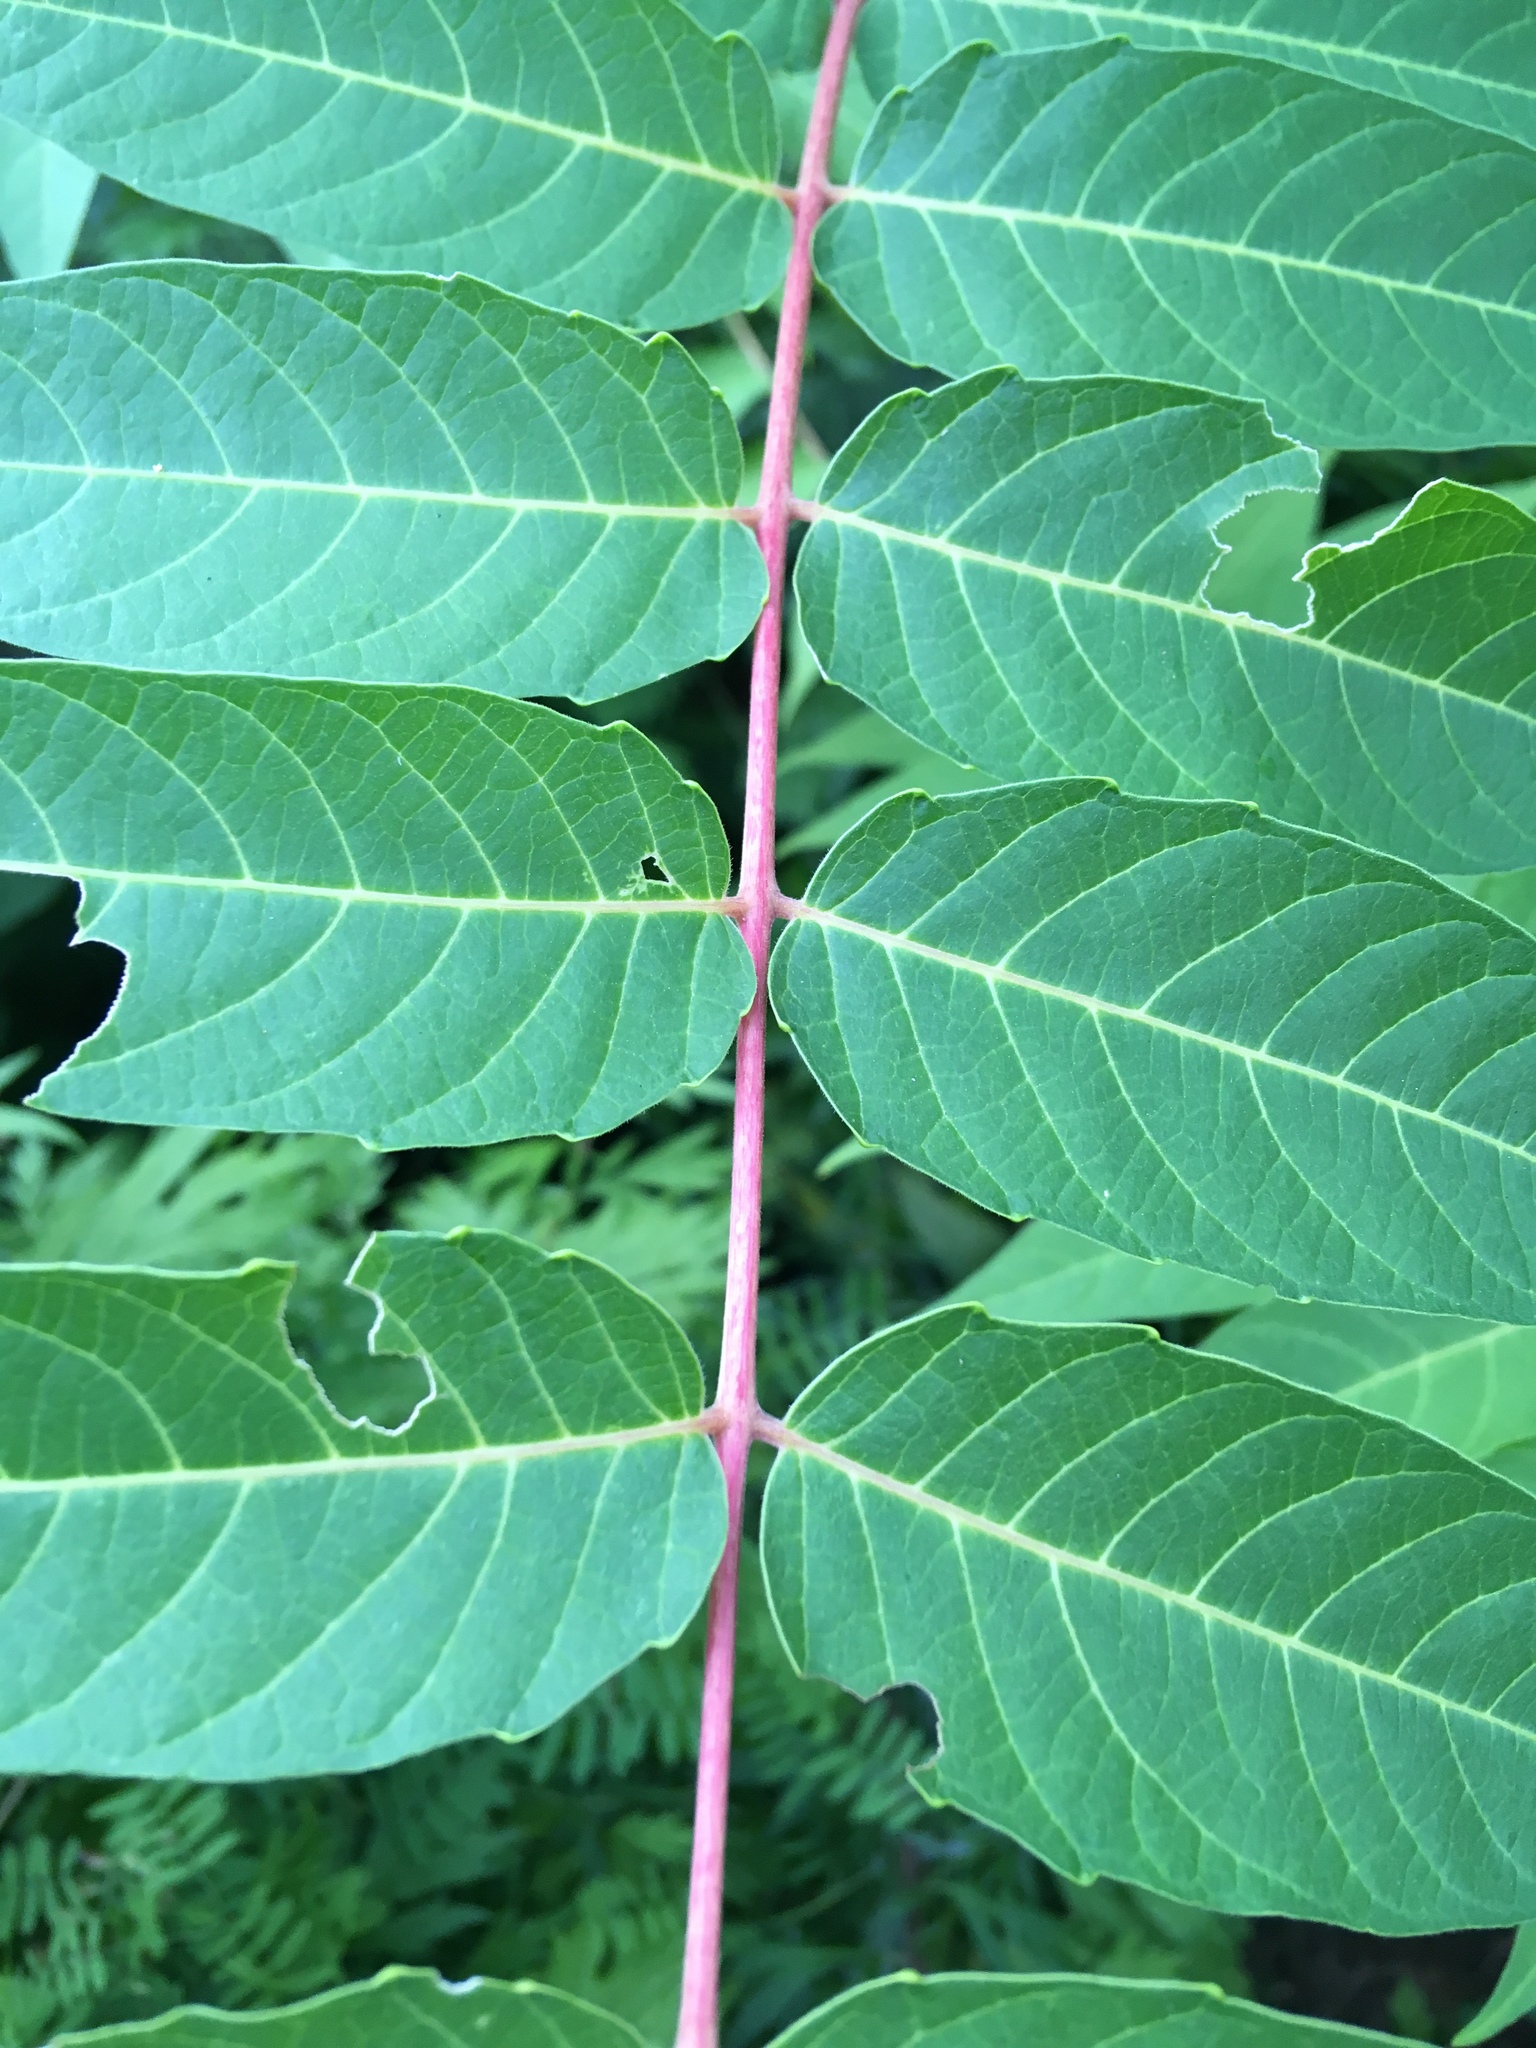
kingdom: Plantae
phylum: Tracheophyta
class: Magnoliopsida
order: Sapindales
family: Simaroubaceae
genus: Ailanthus
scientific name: Ailanthus altissima
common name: Tree-of-heaven
